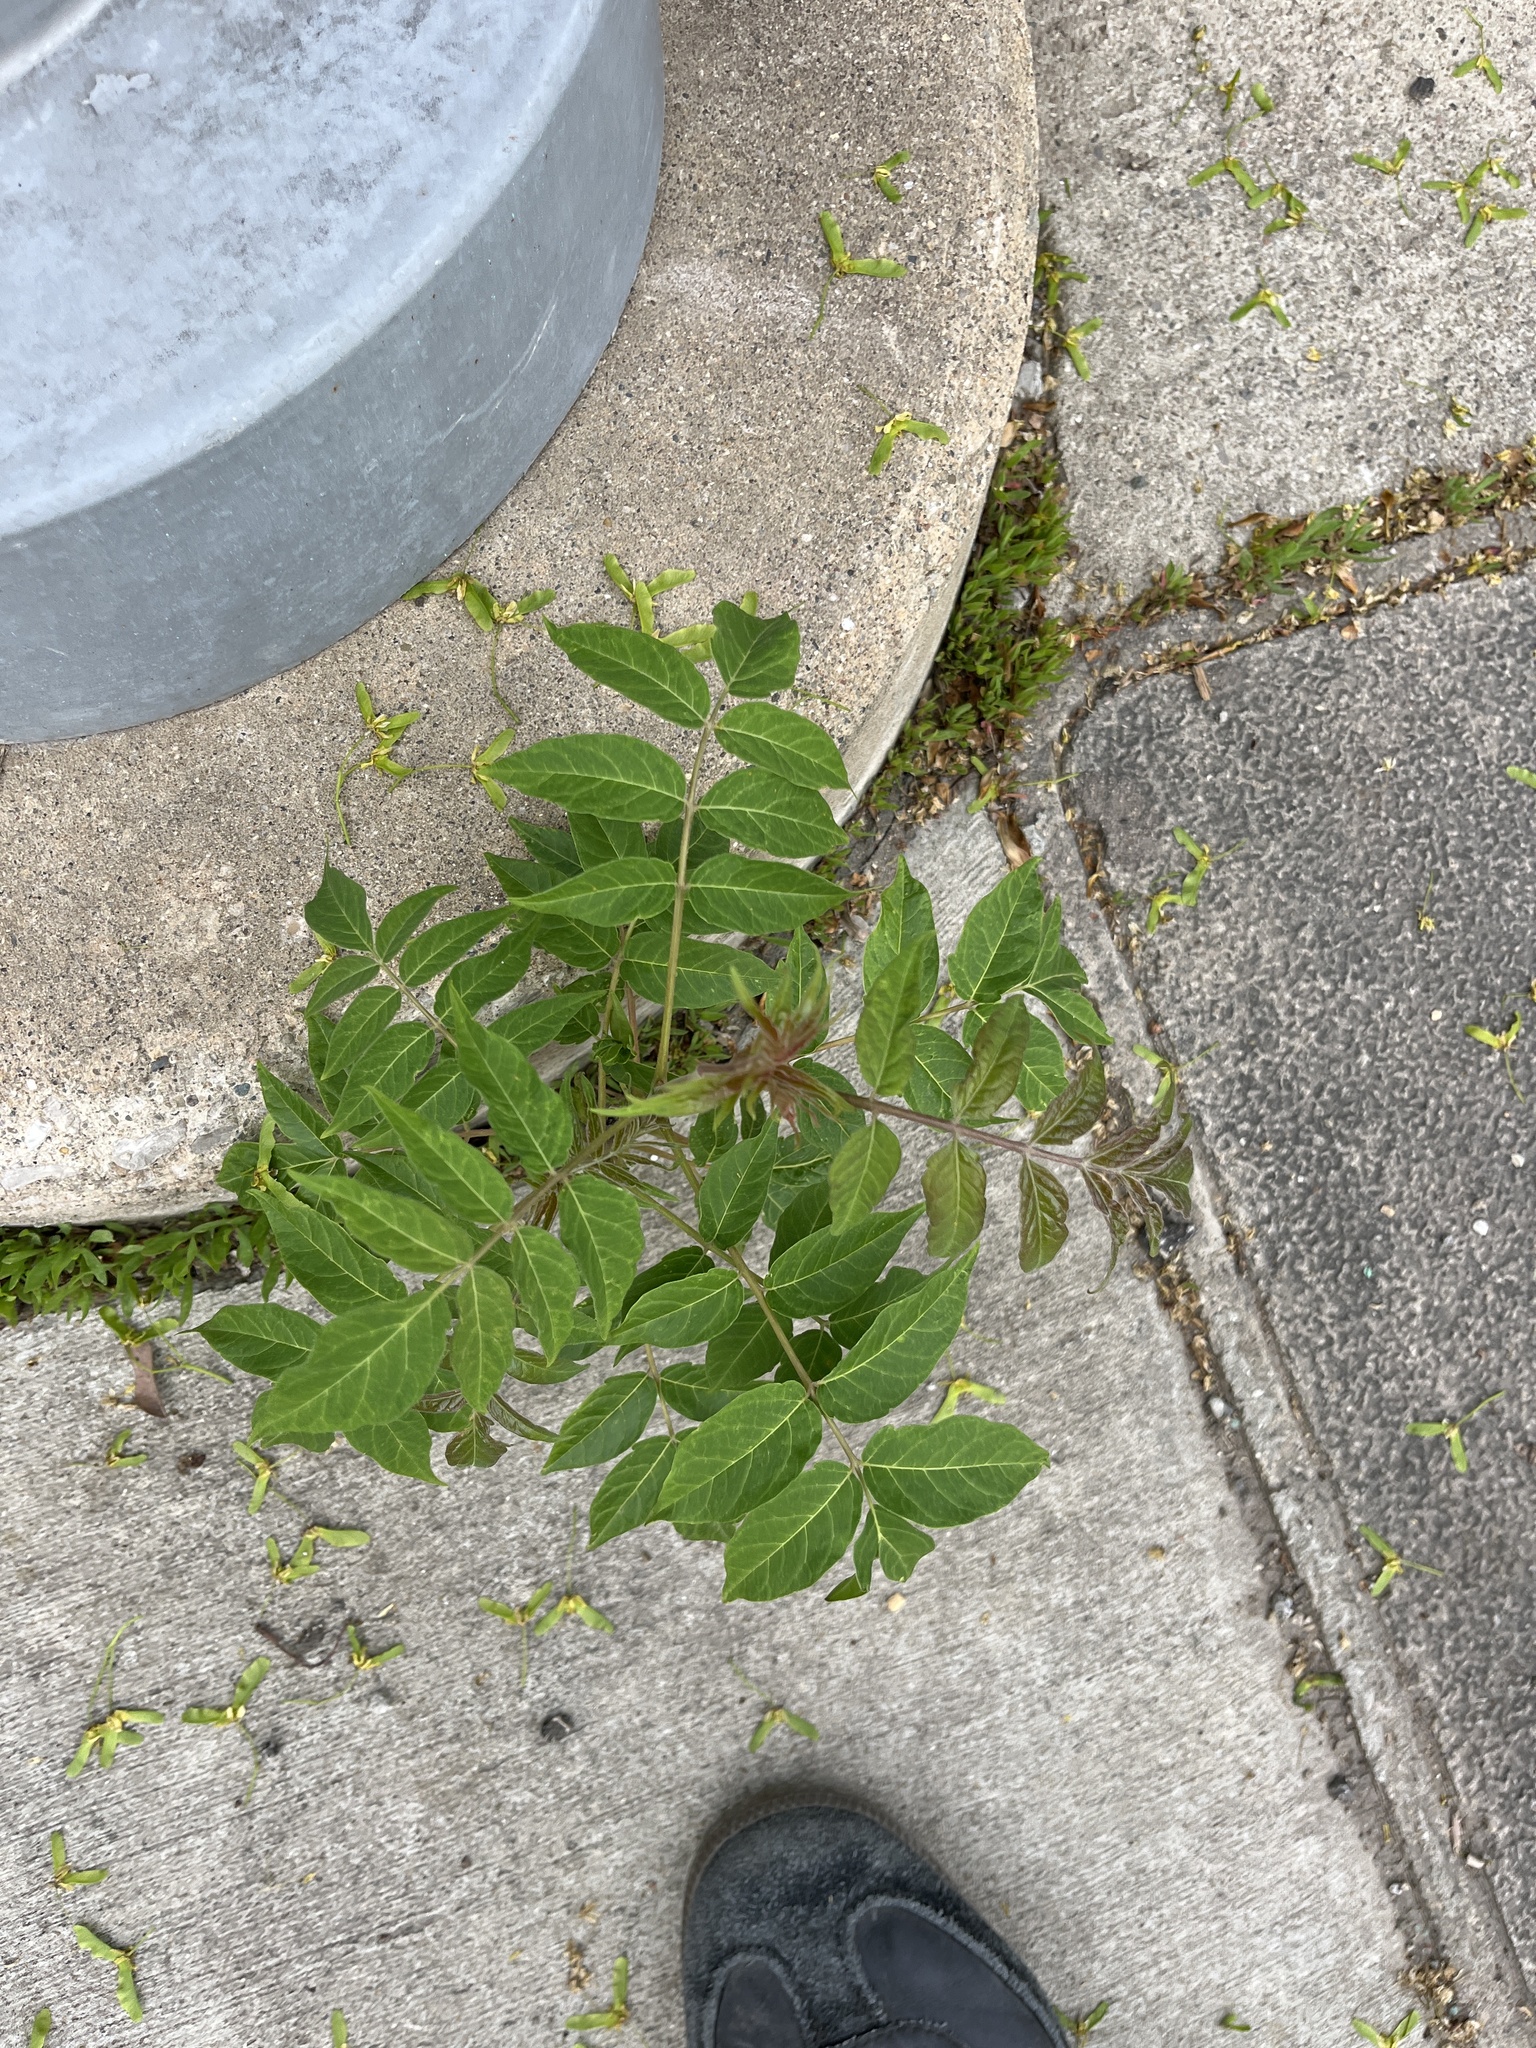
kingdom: Plantae
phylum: Tracheophyta
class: Magnoliopsida
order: Sapindales
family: Simaroubaceae
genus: Ailanthus
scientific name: Ailanthus altissima
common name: Tree-of-heaven
